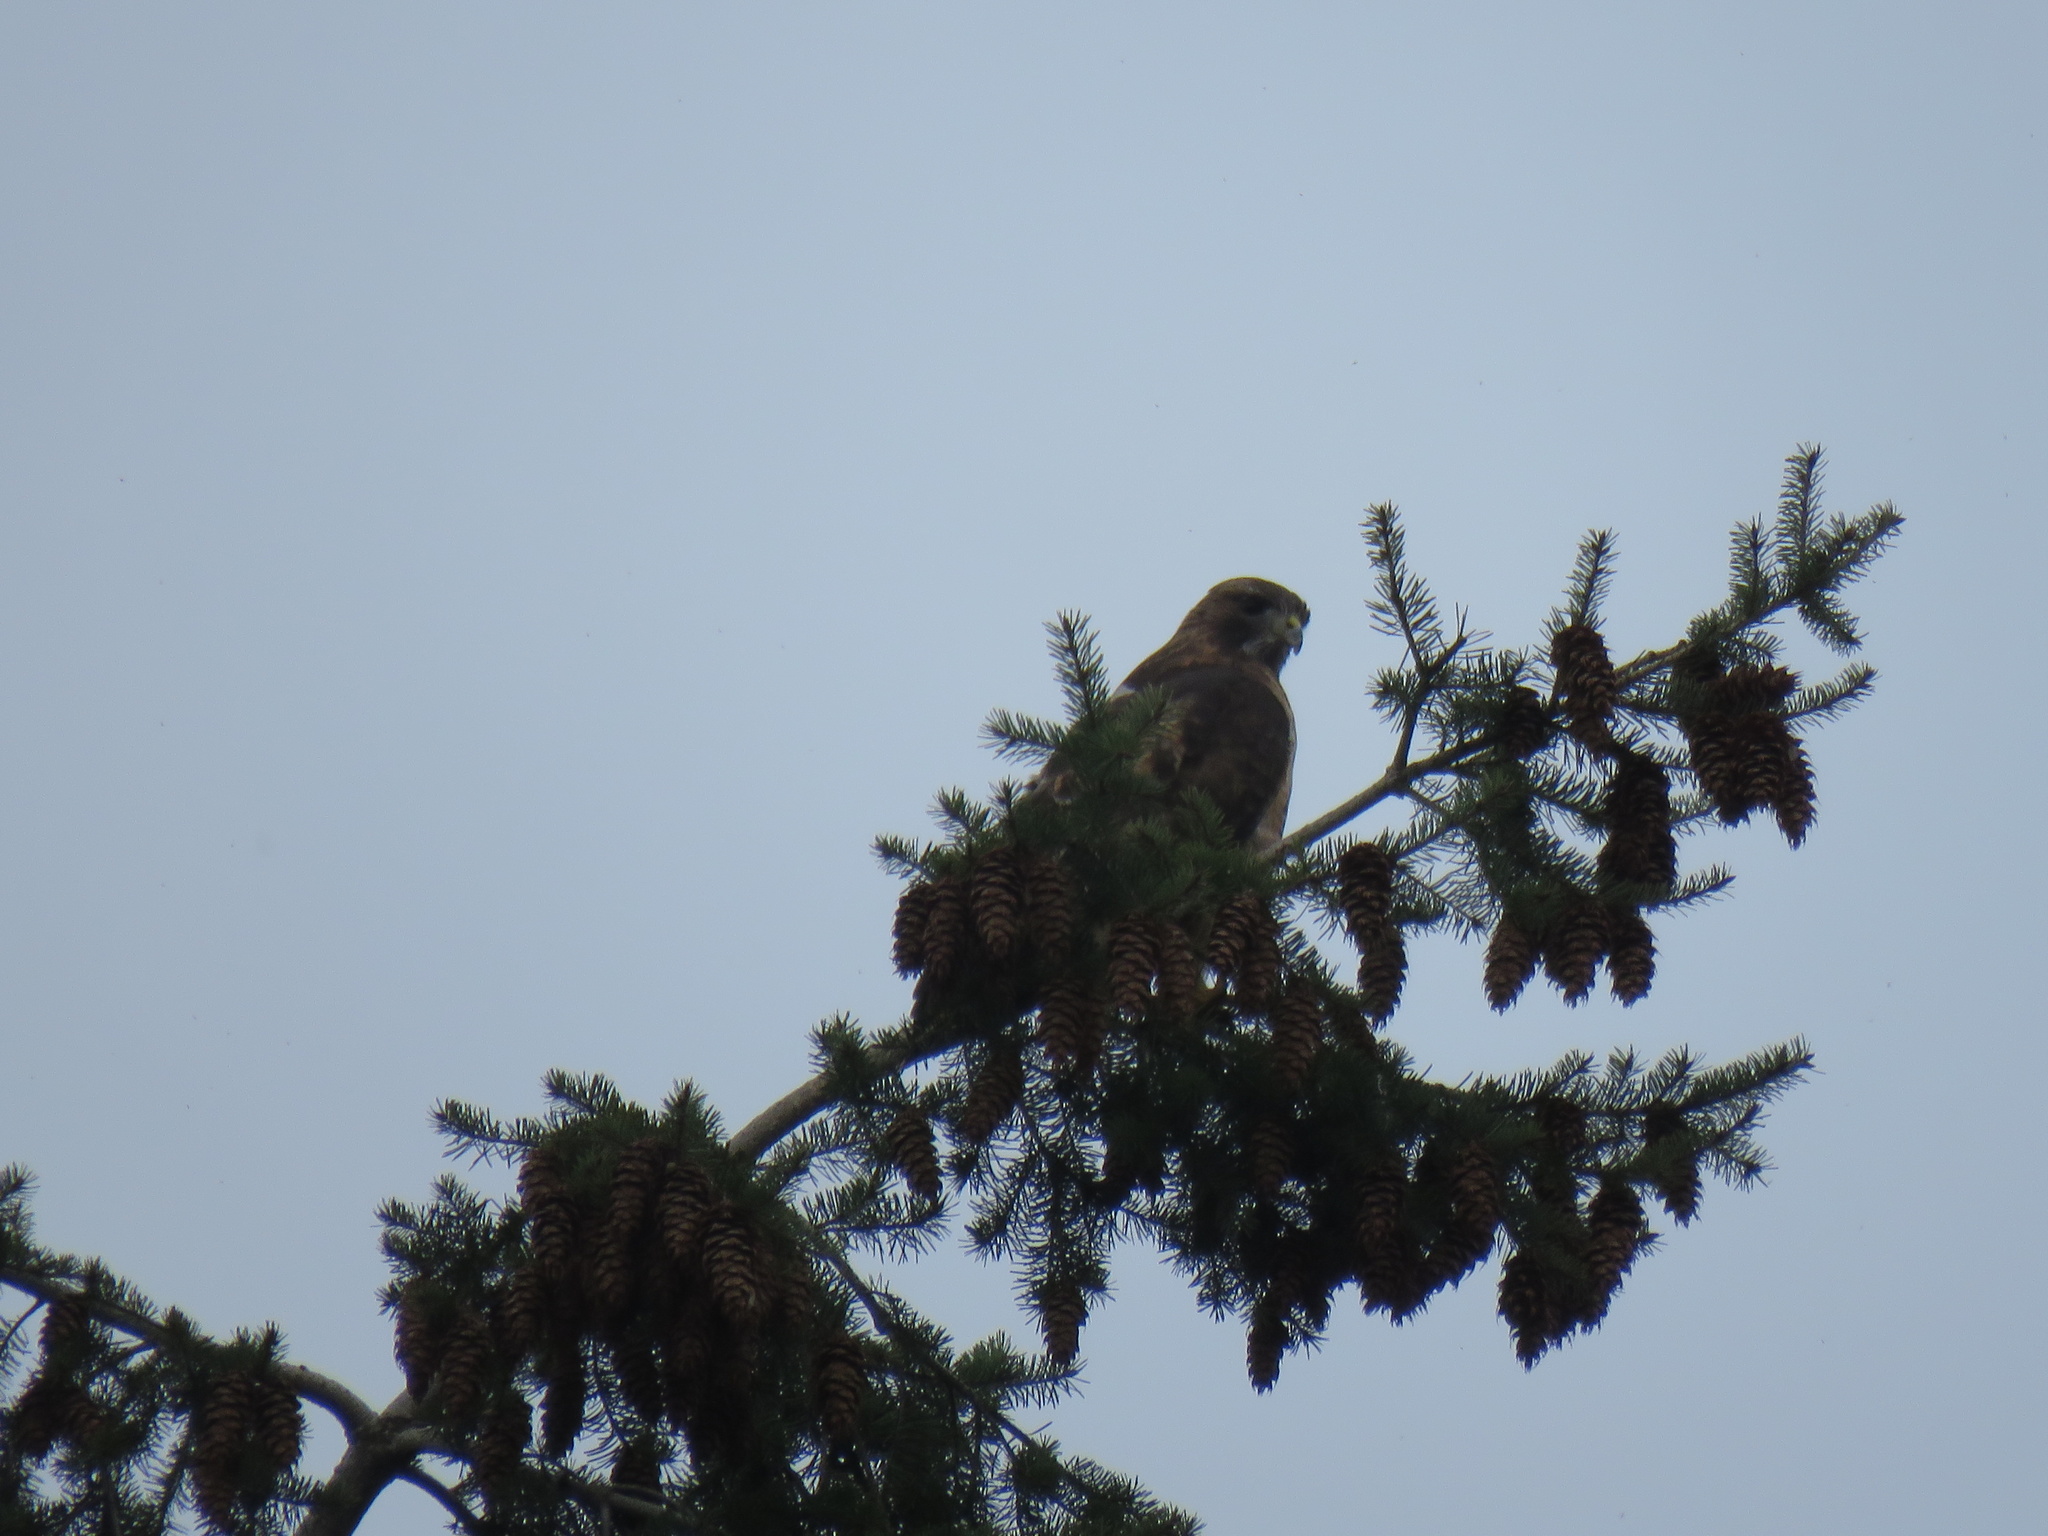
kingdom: Animalia
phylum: Chordata
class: Aves
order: Accipitriformes
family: Accipitridae
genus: Buteo
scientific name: Buteo jamaicensis
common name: Red-tailed hawk
